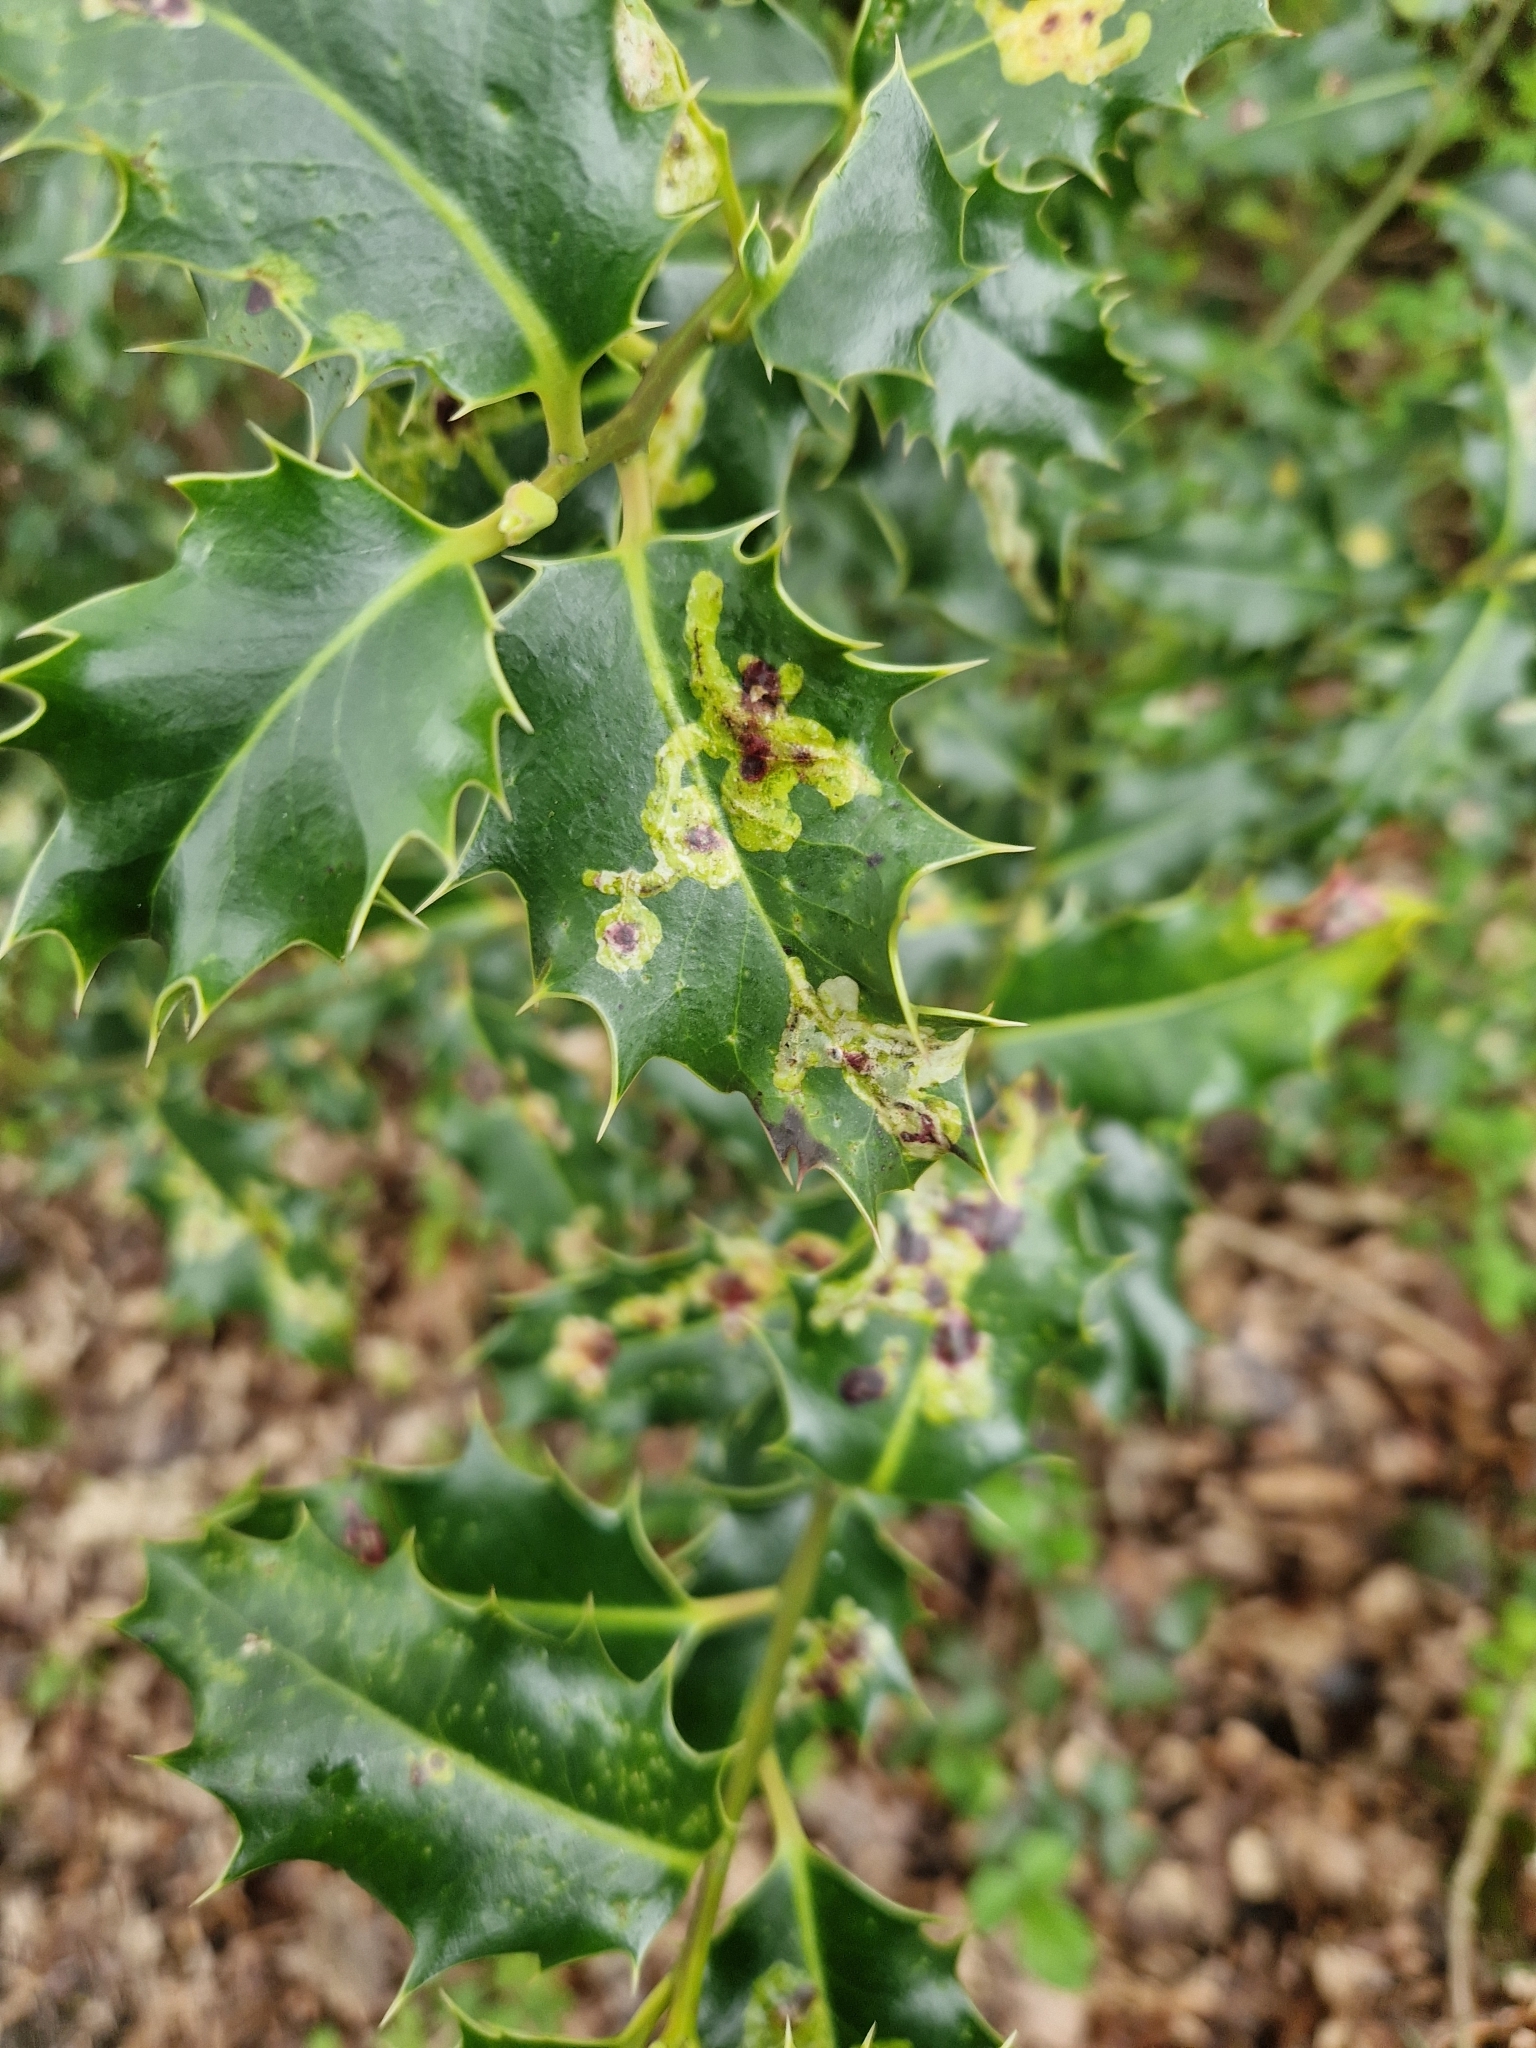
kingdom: Animalia
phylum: Arthropoda
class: Insecta
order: Diptera
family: Agromyzidae
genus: Phytomyza
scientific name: Phytomyza ilicis
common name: Holly leafminer
